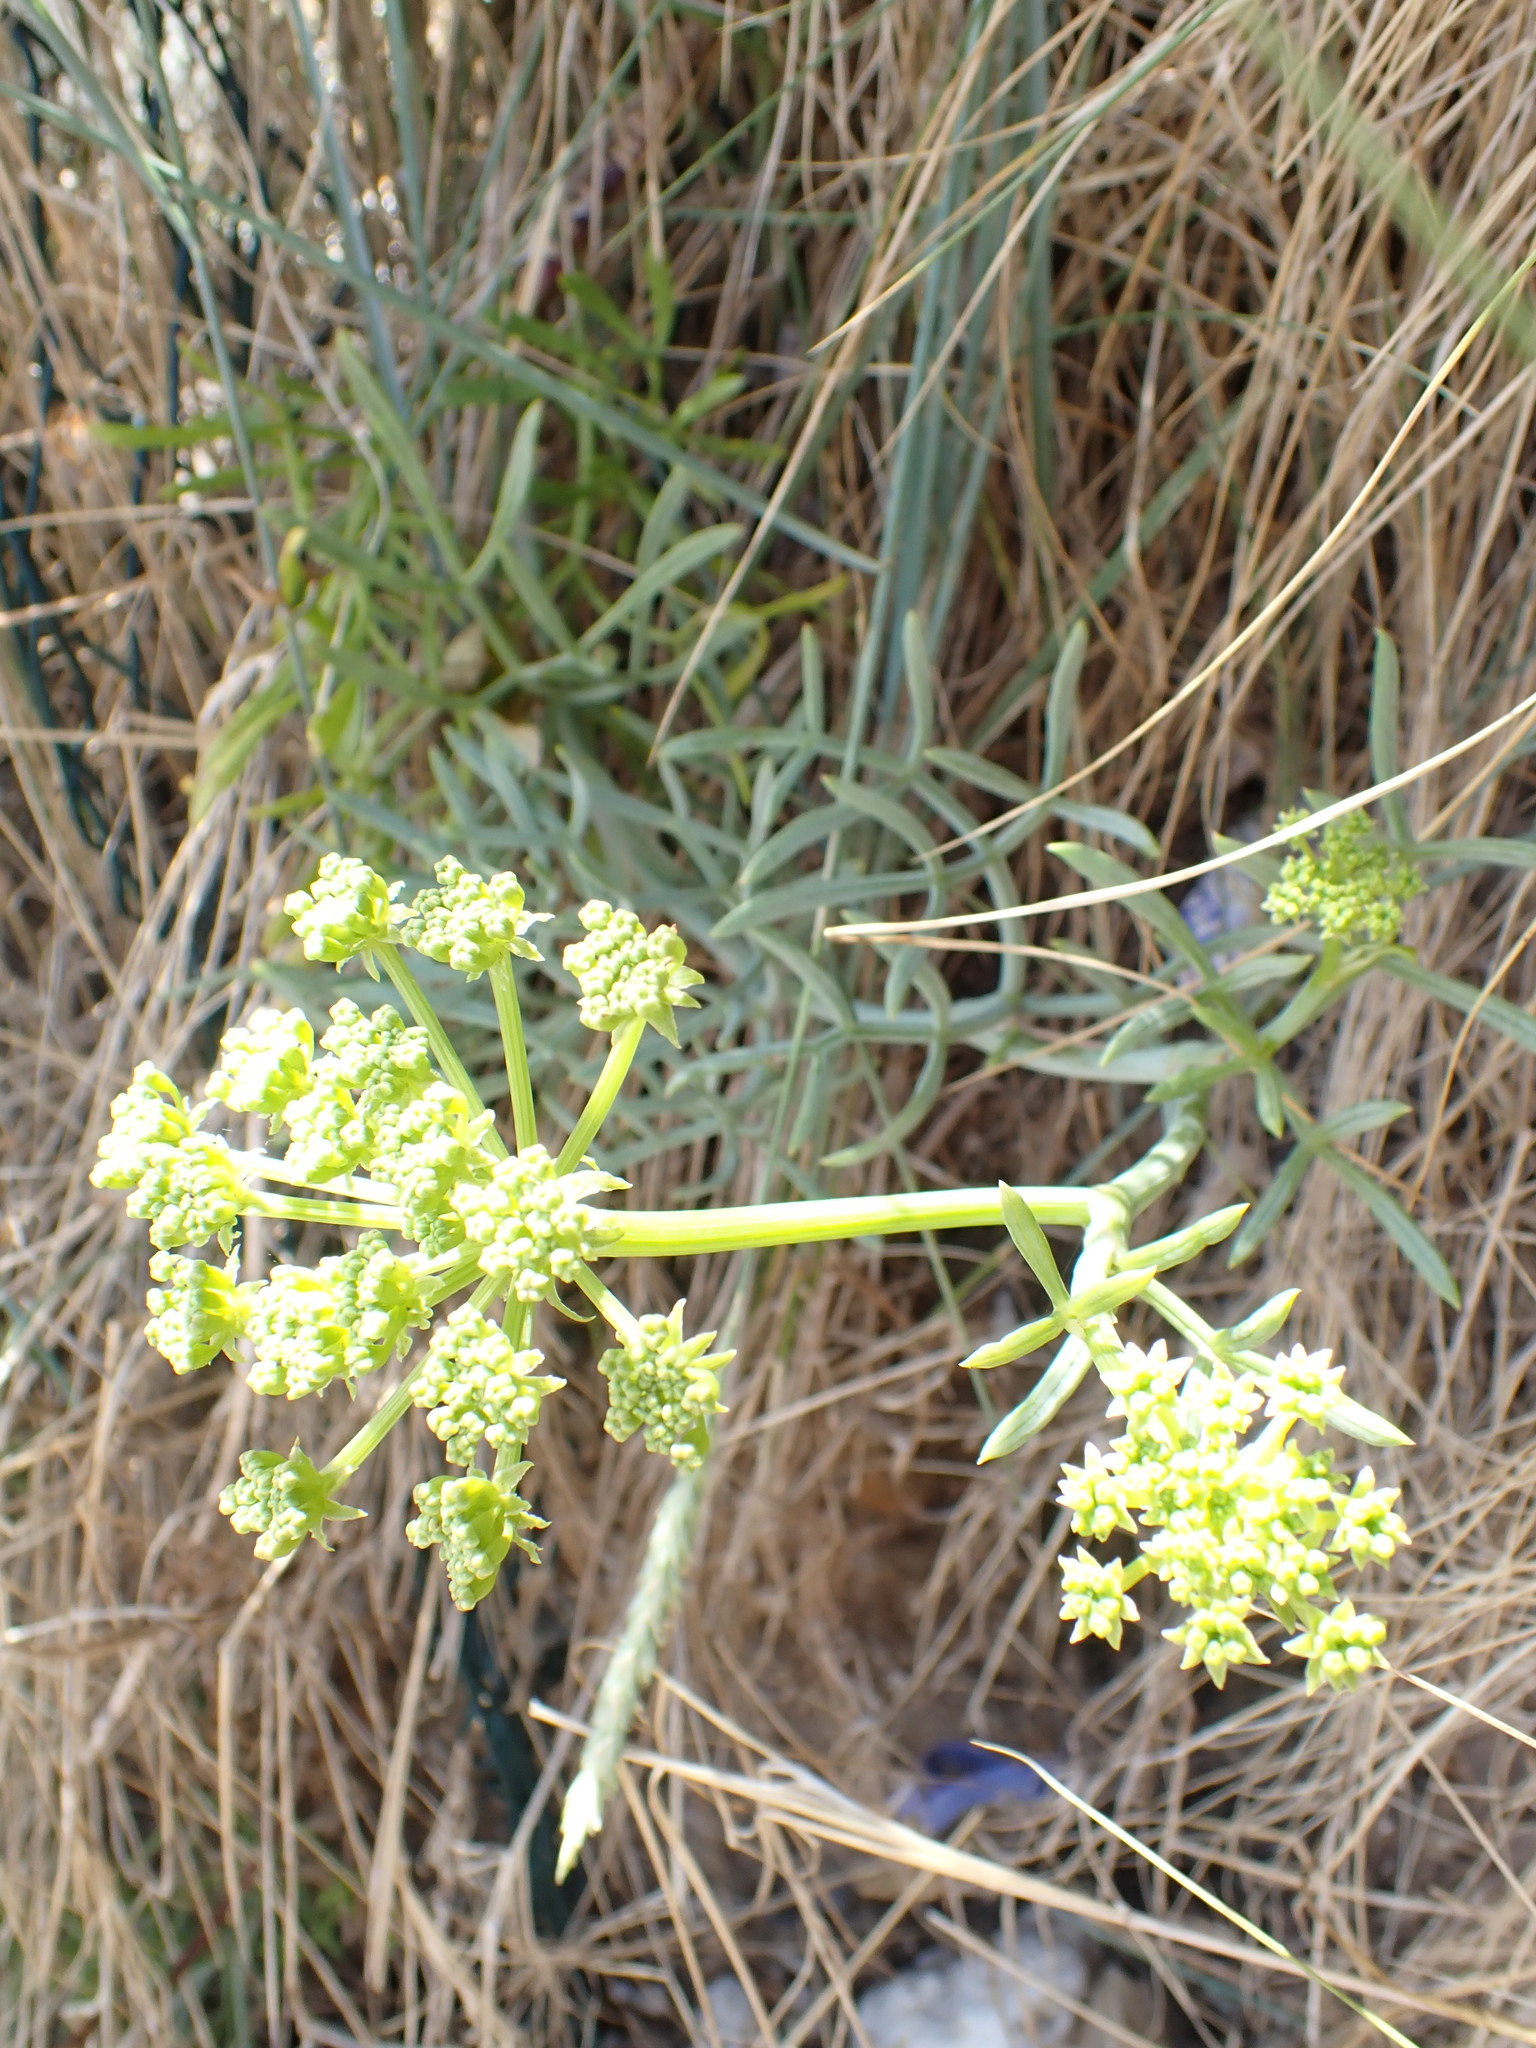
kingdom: Plantae
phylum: Tracheophyta
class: Magnoliopsida
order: Apiales
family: Apiaceae
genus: Crithmum
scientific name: Crithmum maritimum
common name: Rock samphire
